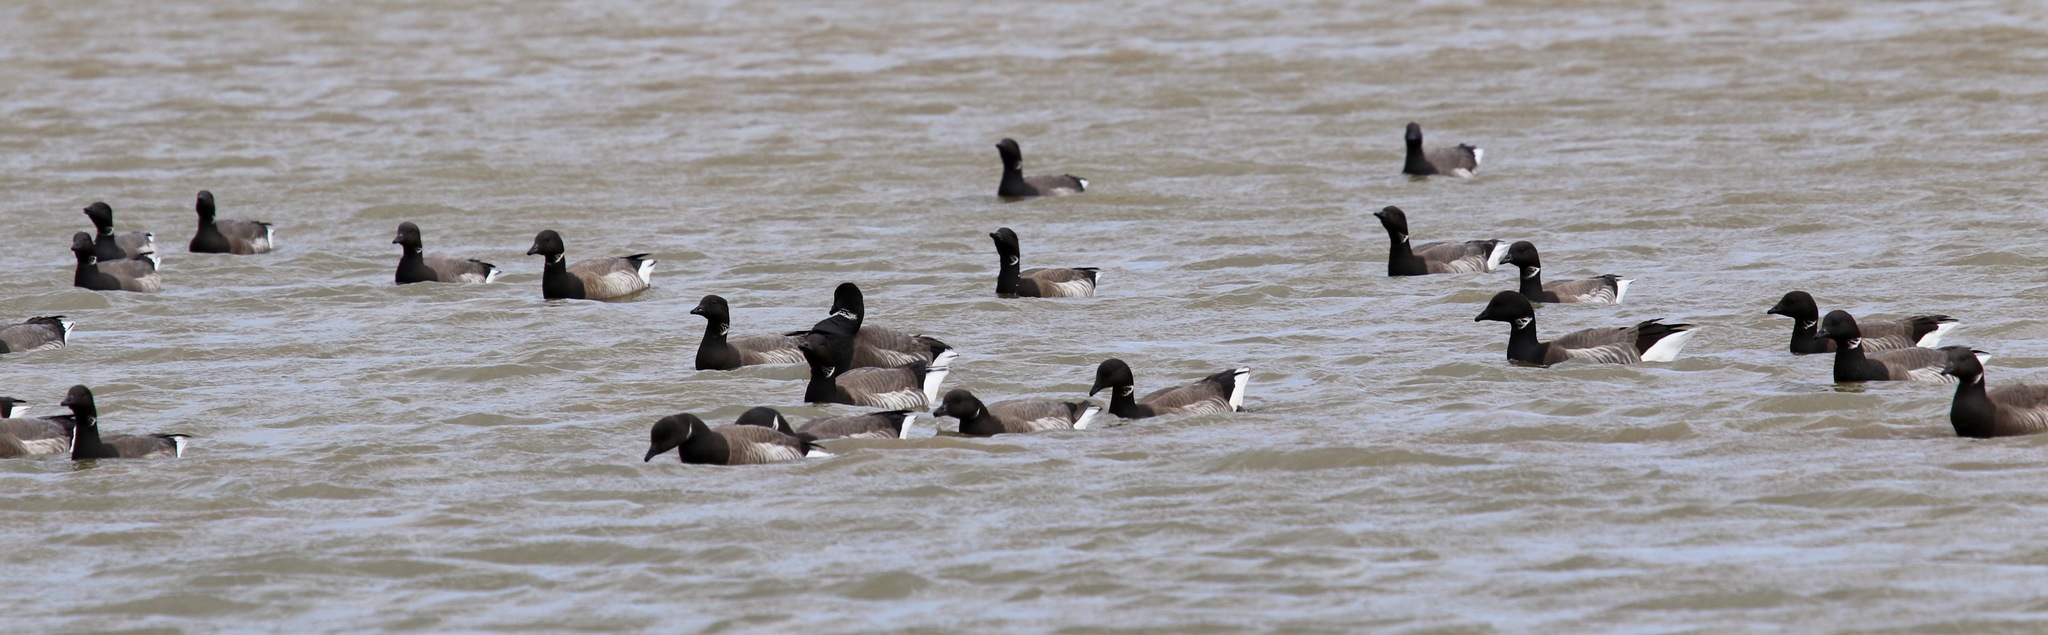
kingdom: Animalia
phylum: Chordata
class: Aves
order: Anseriformes
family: Anatidae
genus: Branta
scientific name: Branta bernicla
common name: Brant goose
